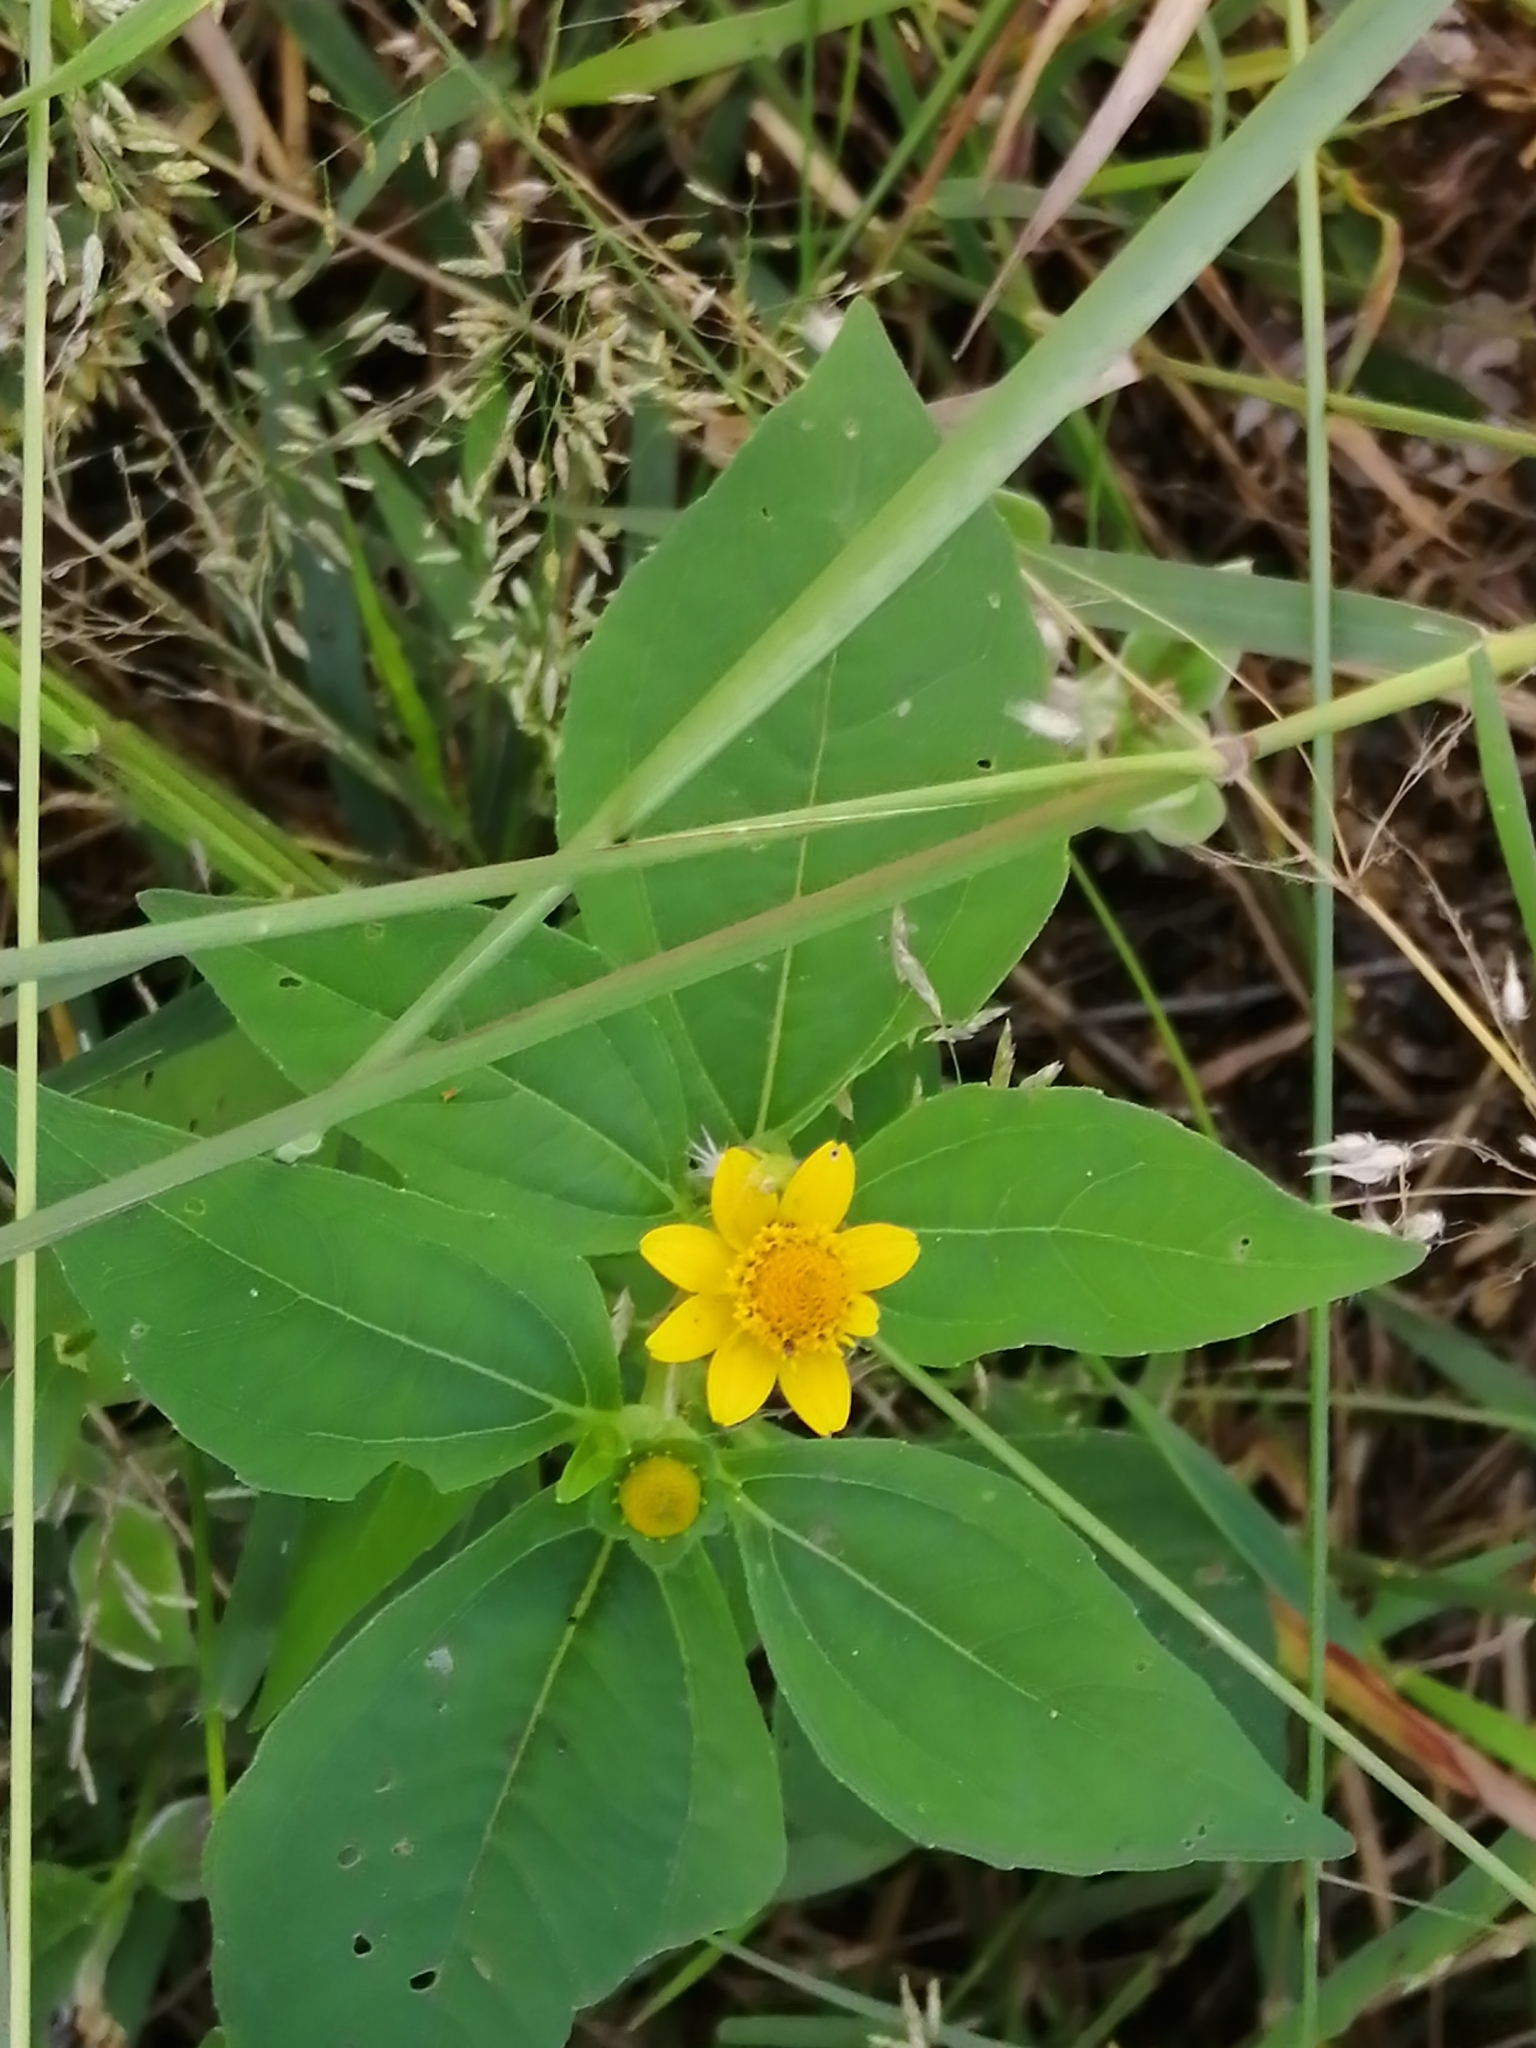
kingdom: Plantae
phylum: Tracheophyta
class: Magnoliopsida
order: Asterales
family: Asteraceae
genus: Melampodium
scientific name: Melampodium divaricatum
